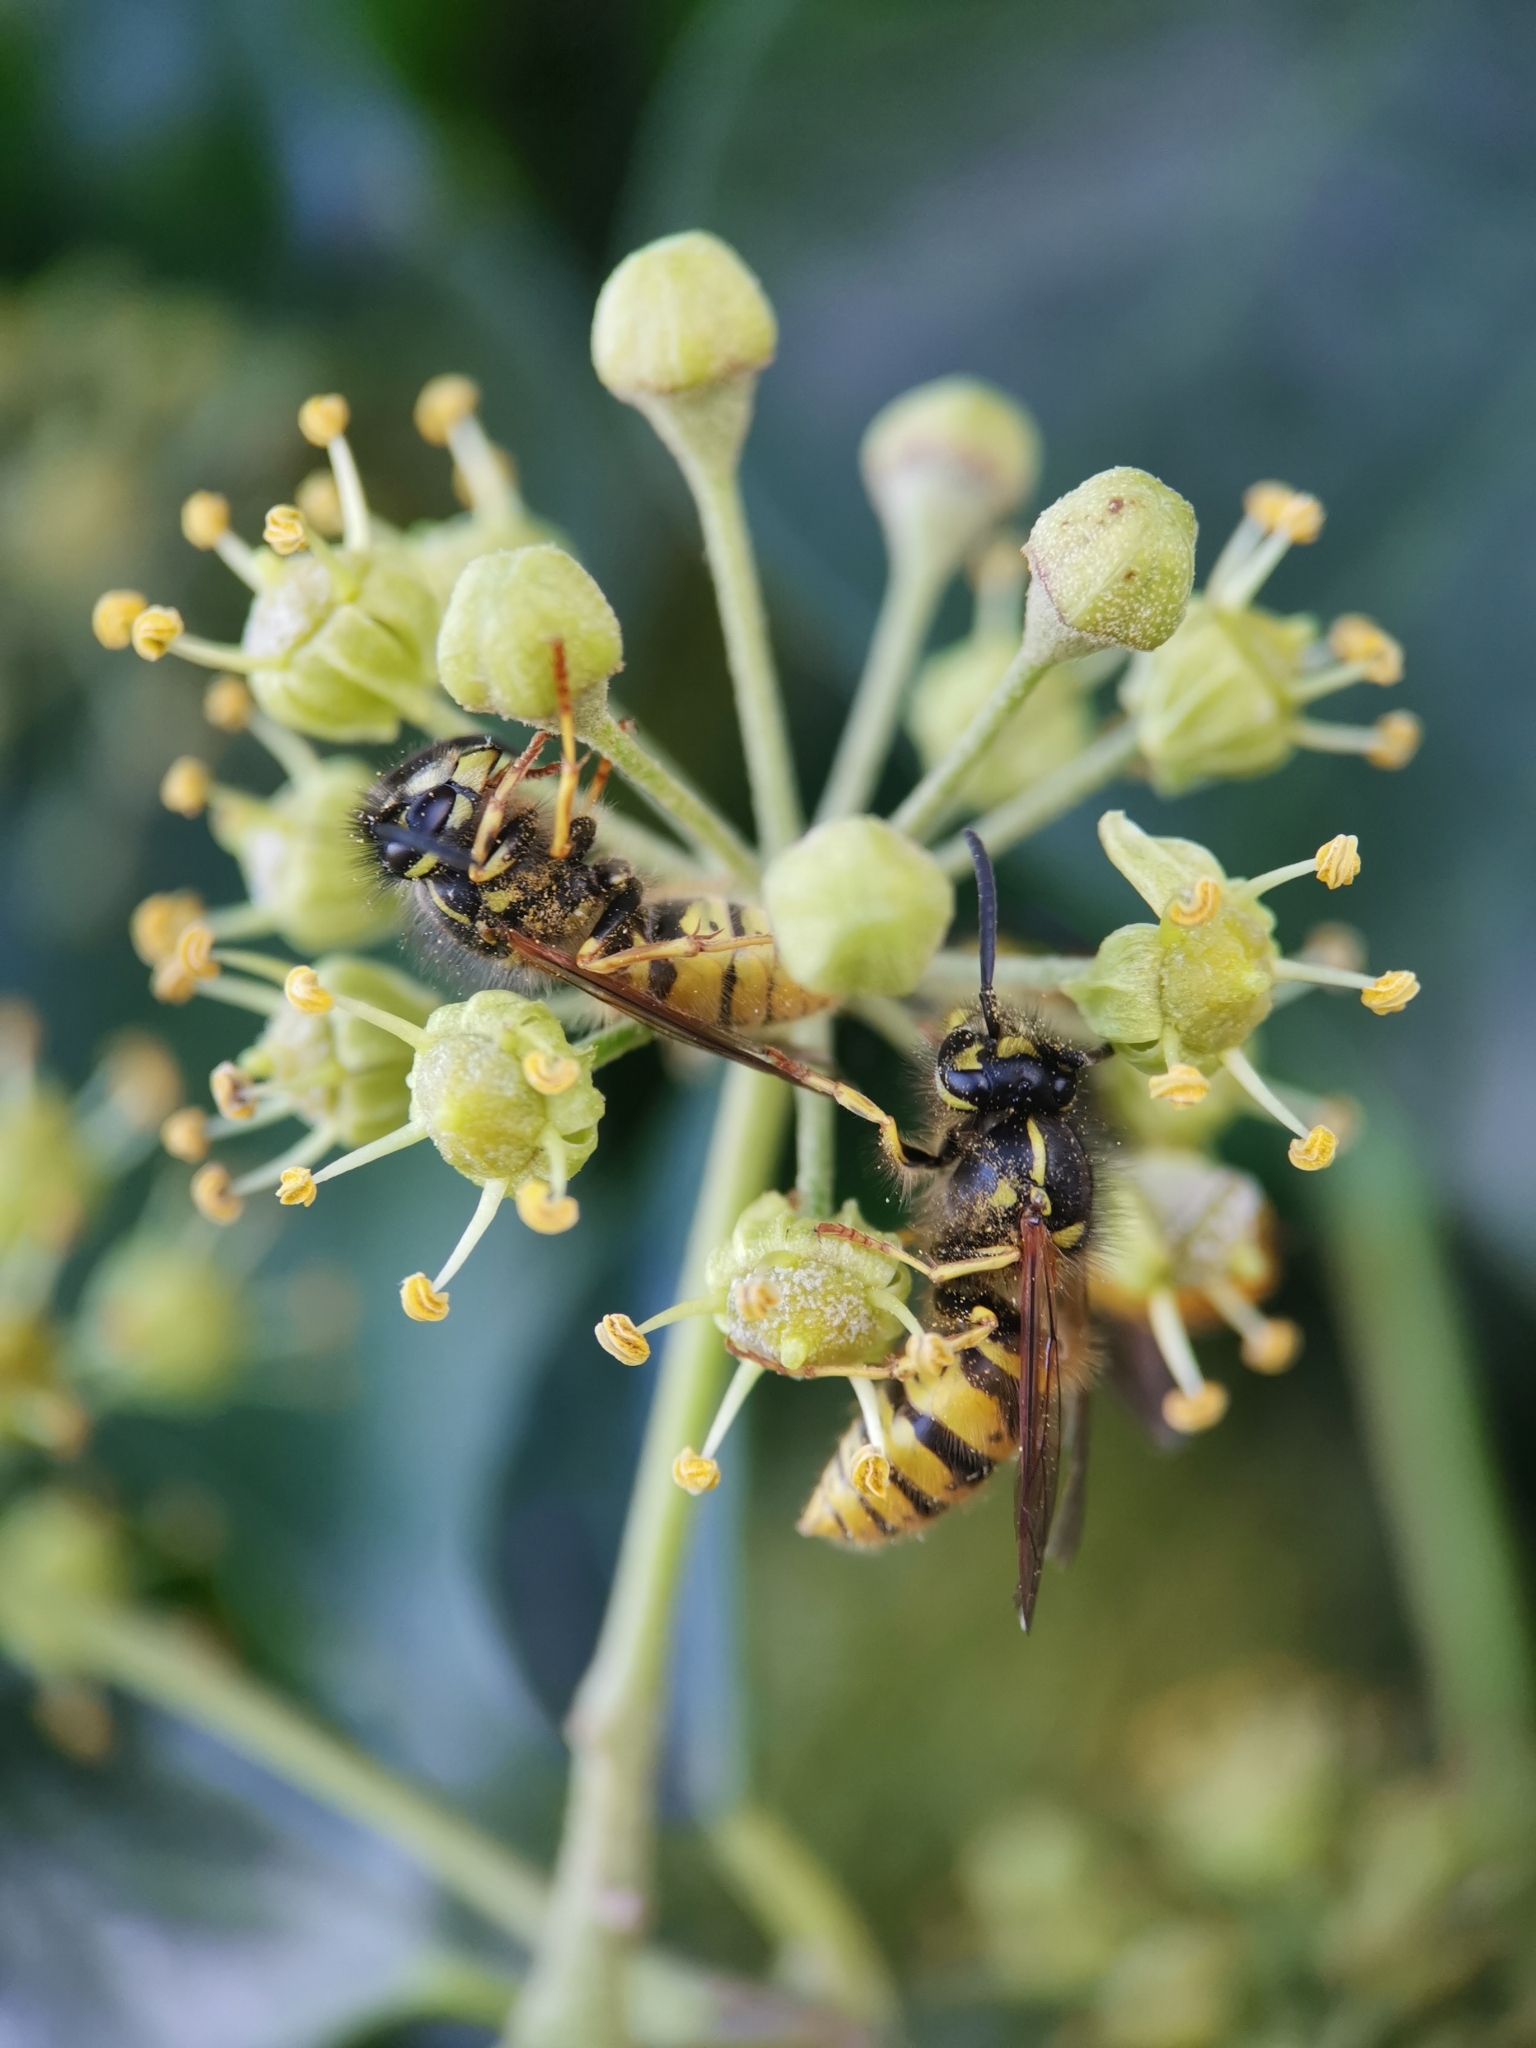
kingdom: Animalia
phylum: Arthropoda
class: Insecta
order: Hymenoptera
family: Vespidae
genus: Vespula
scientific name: Vespula vulgaris
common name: Common wasp
